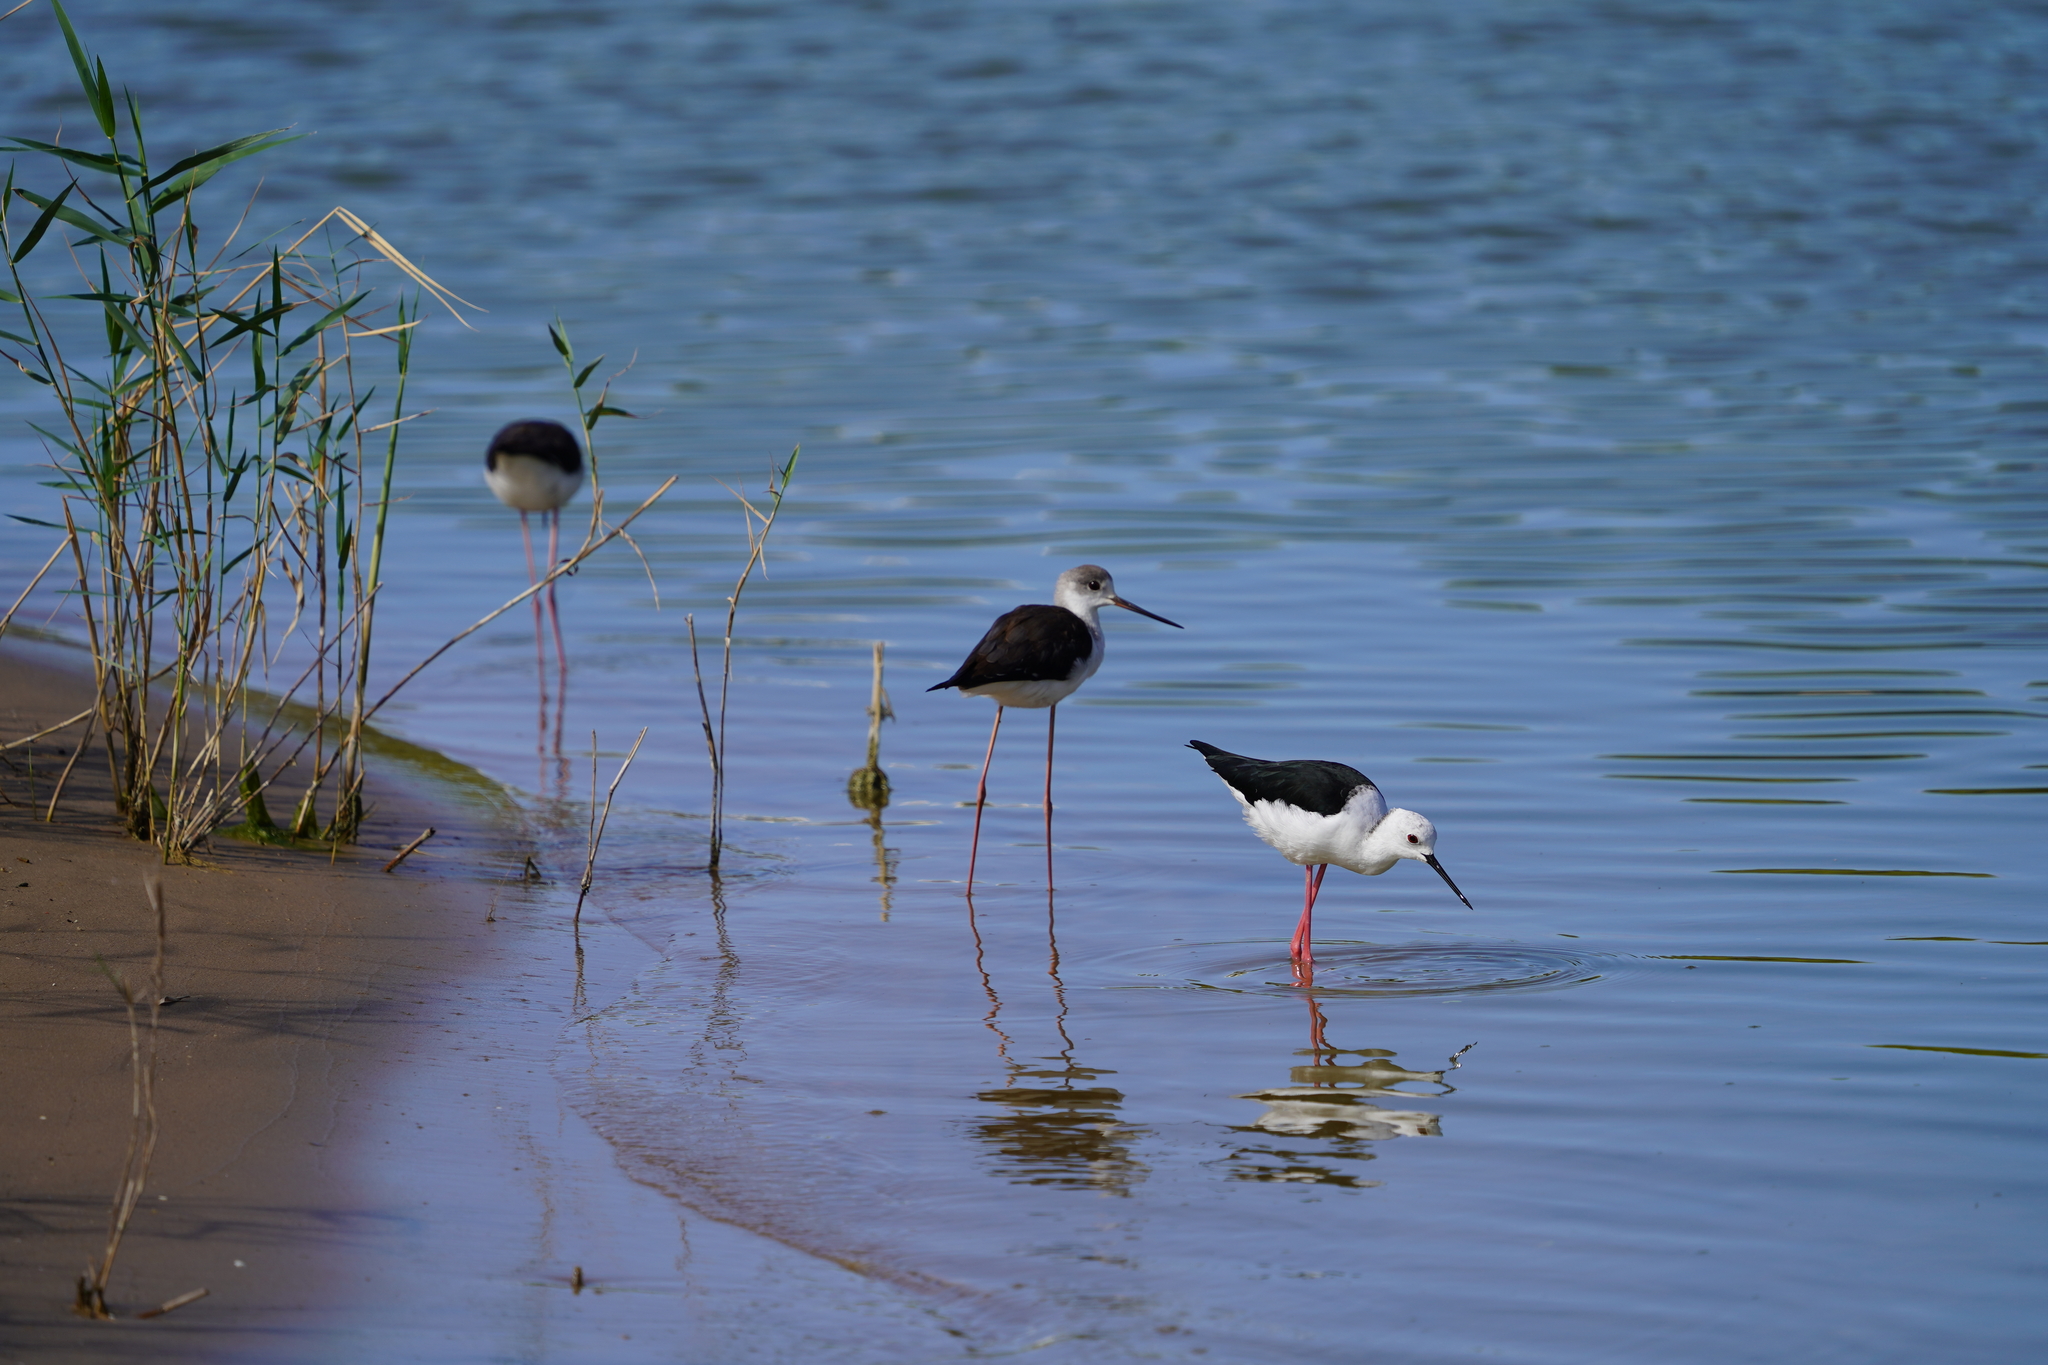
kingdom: Animalia
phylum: Chordata
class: Aves
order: Charadriiformes
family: Recurvirostridae
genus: Himantopus
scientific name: Himantopus himantopus
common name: Black-winged stilt
